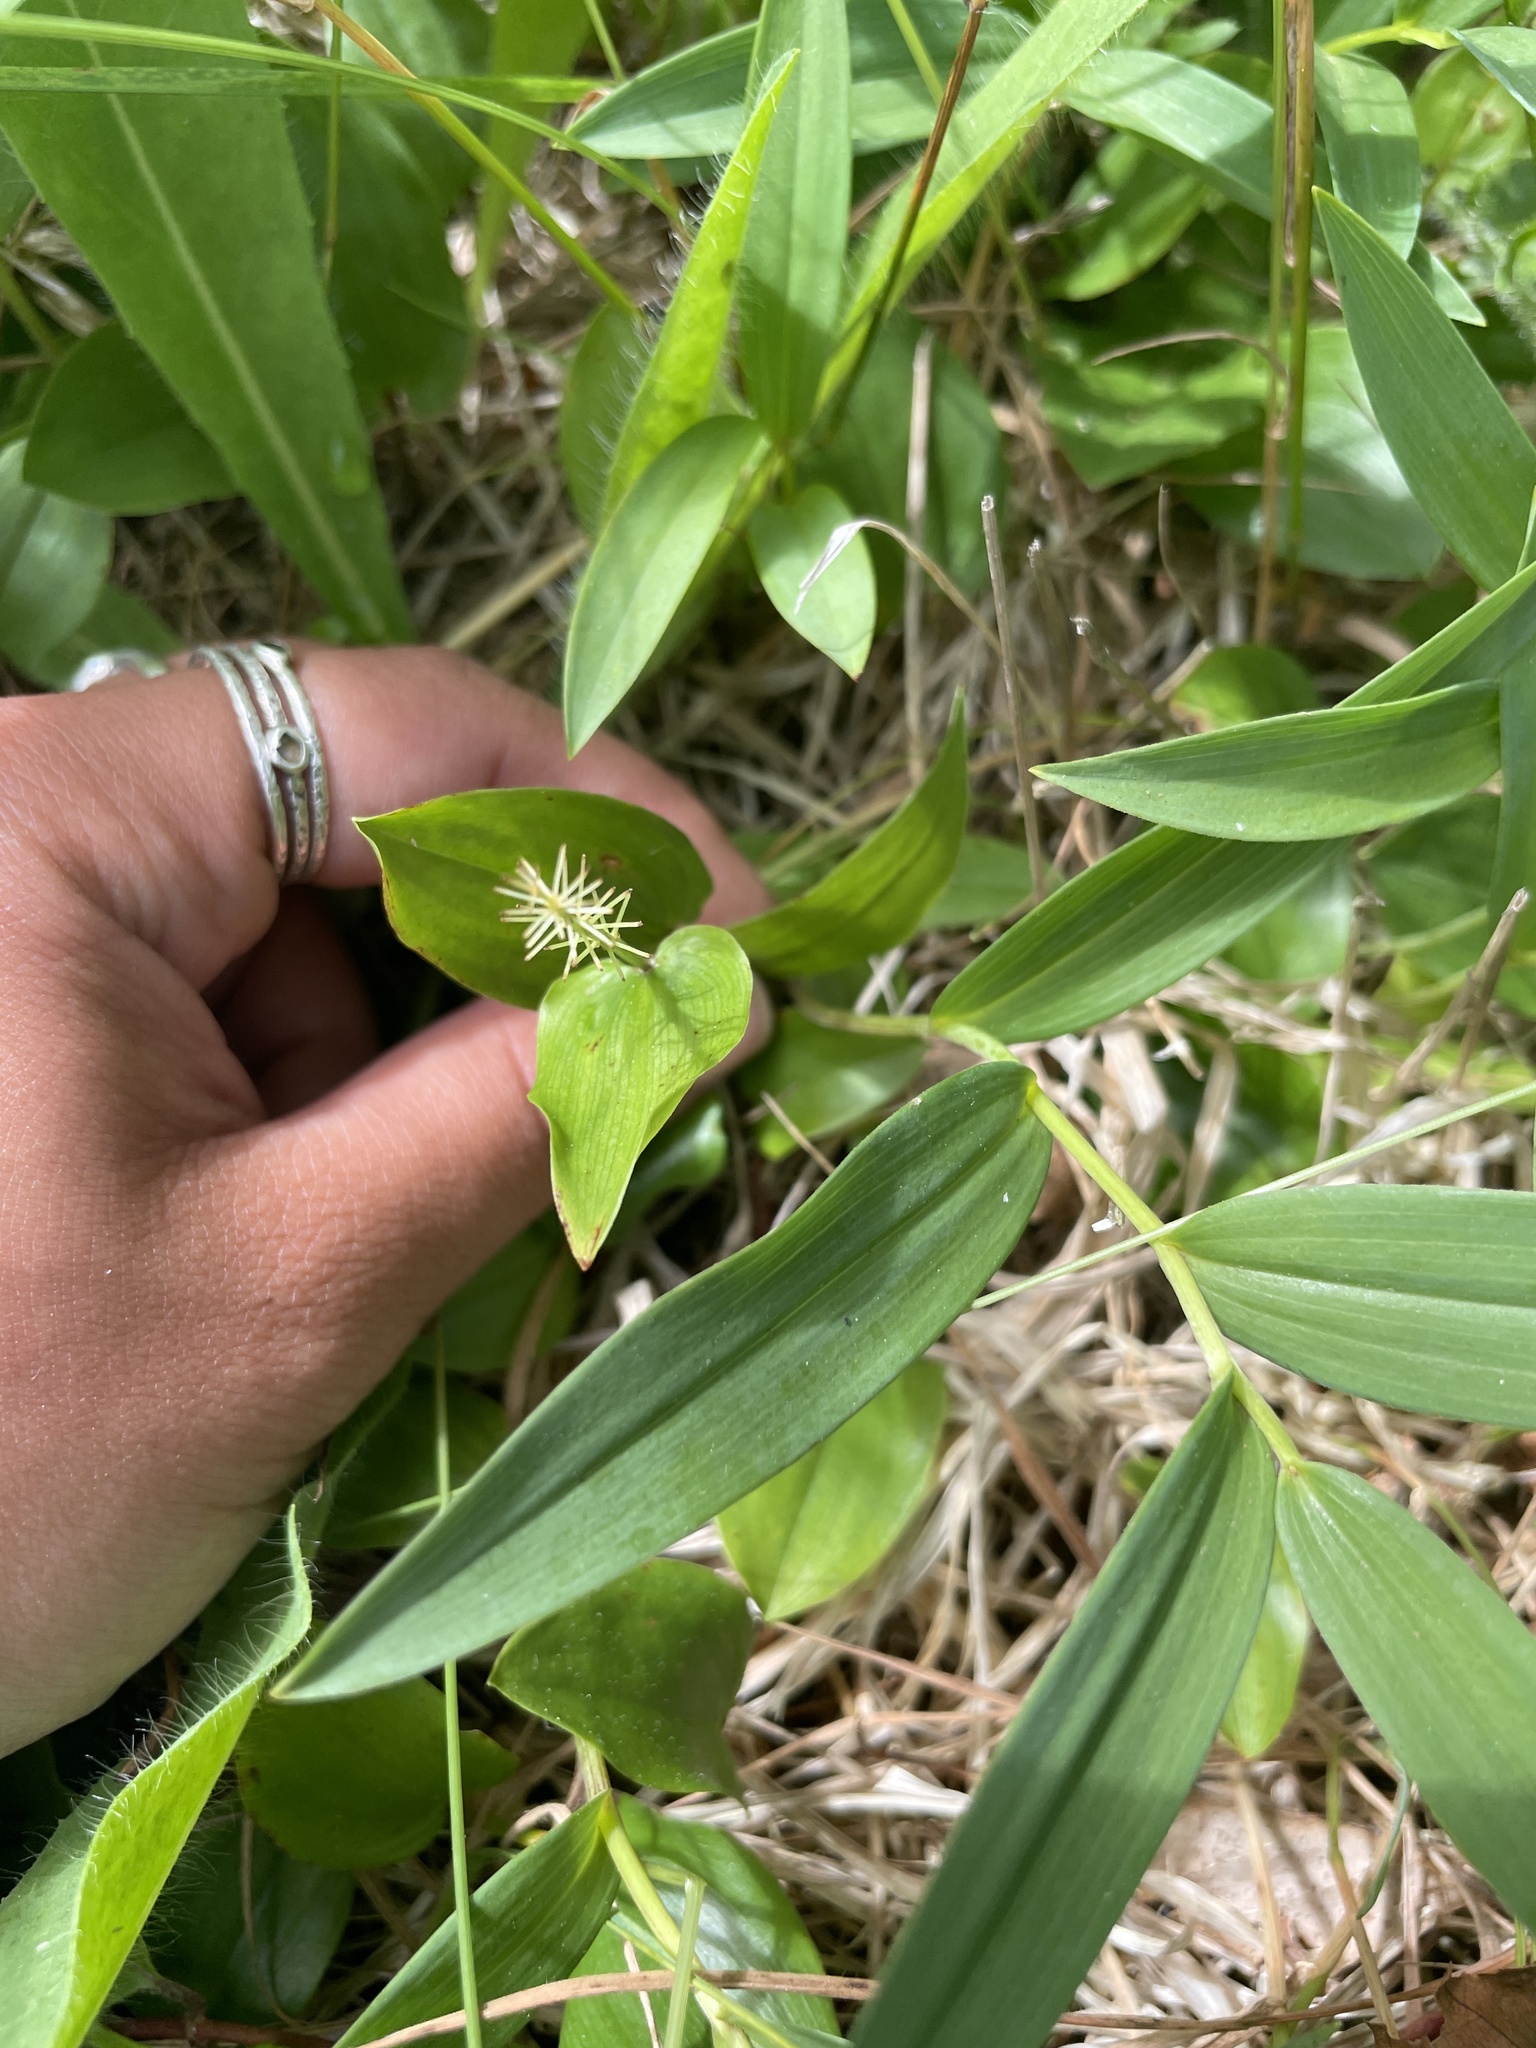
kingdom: Plantae
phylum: Tracheophyta
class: Liliopsida
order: Asparagales
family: Asparagaceae
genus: Maianthemum
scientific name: Maianthemum canadense
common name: False lily-of-the-valley
